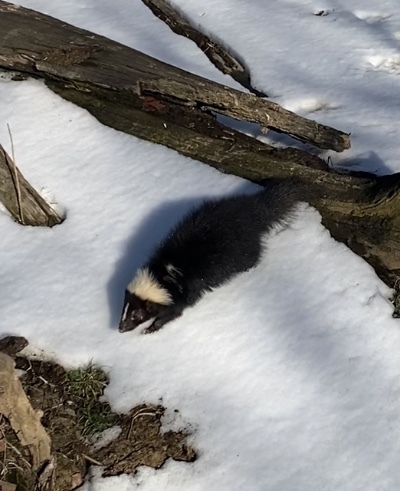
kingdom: Animalia
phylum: Chordata
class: Mammalia
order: Carnivora
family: Mephitidae
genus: Mephitis
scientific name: Mephitis mephitis
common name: Striped skunk
